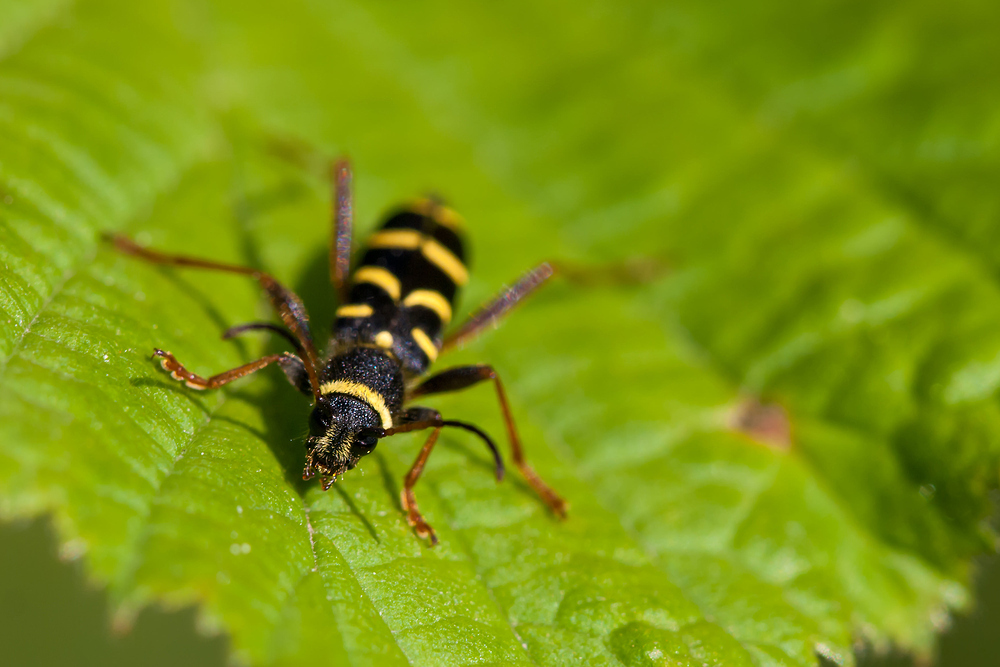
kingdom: Animalia
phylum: Arthropoda
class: Insecta
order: Coleoptera
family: Cerambycidae
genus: Clytus
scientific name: Clytus arietis
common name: Wasp beetle
